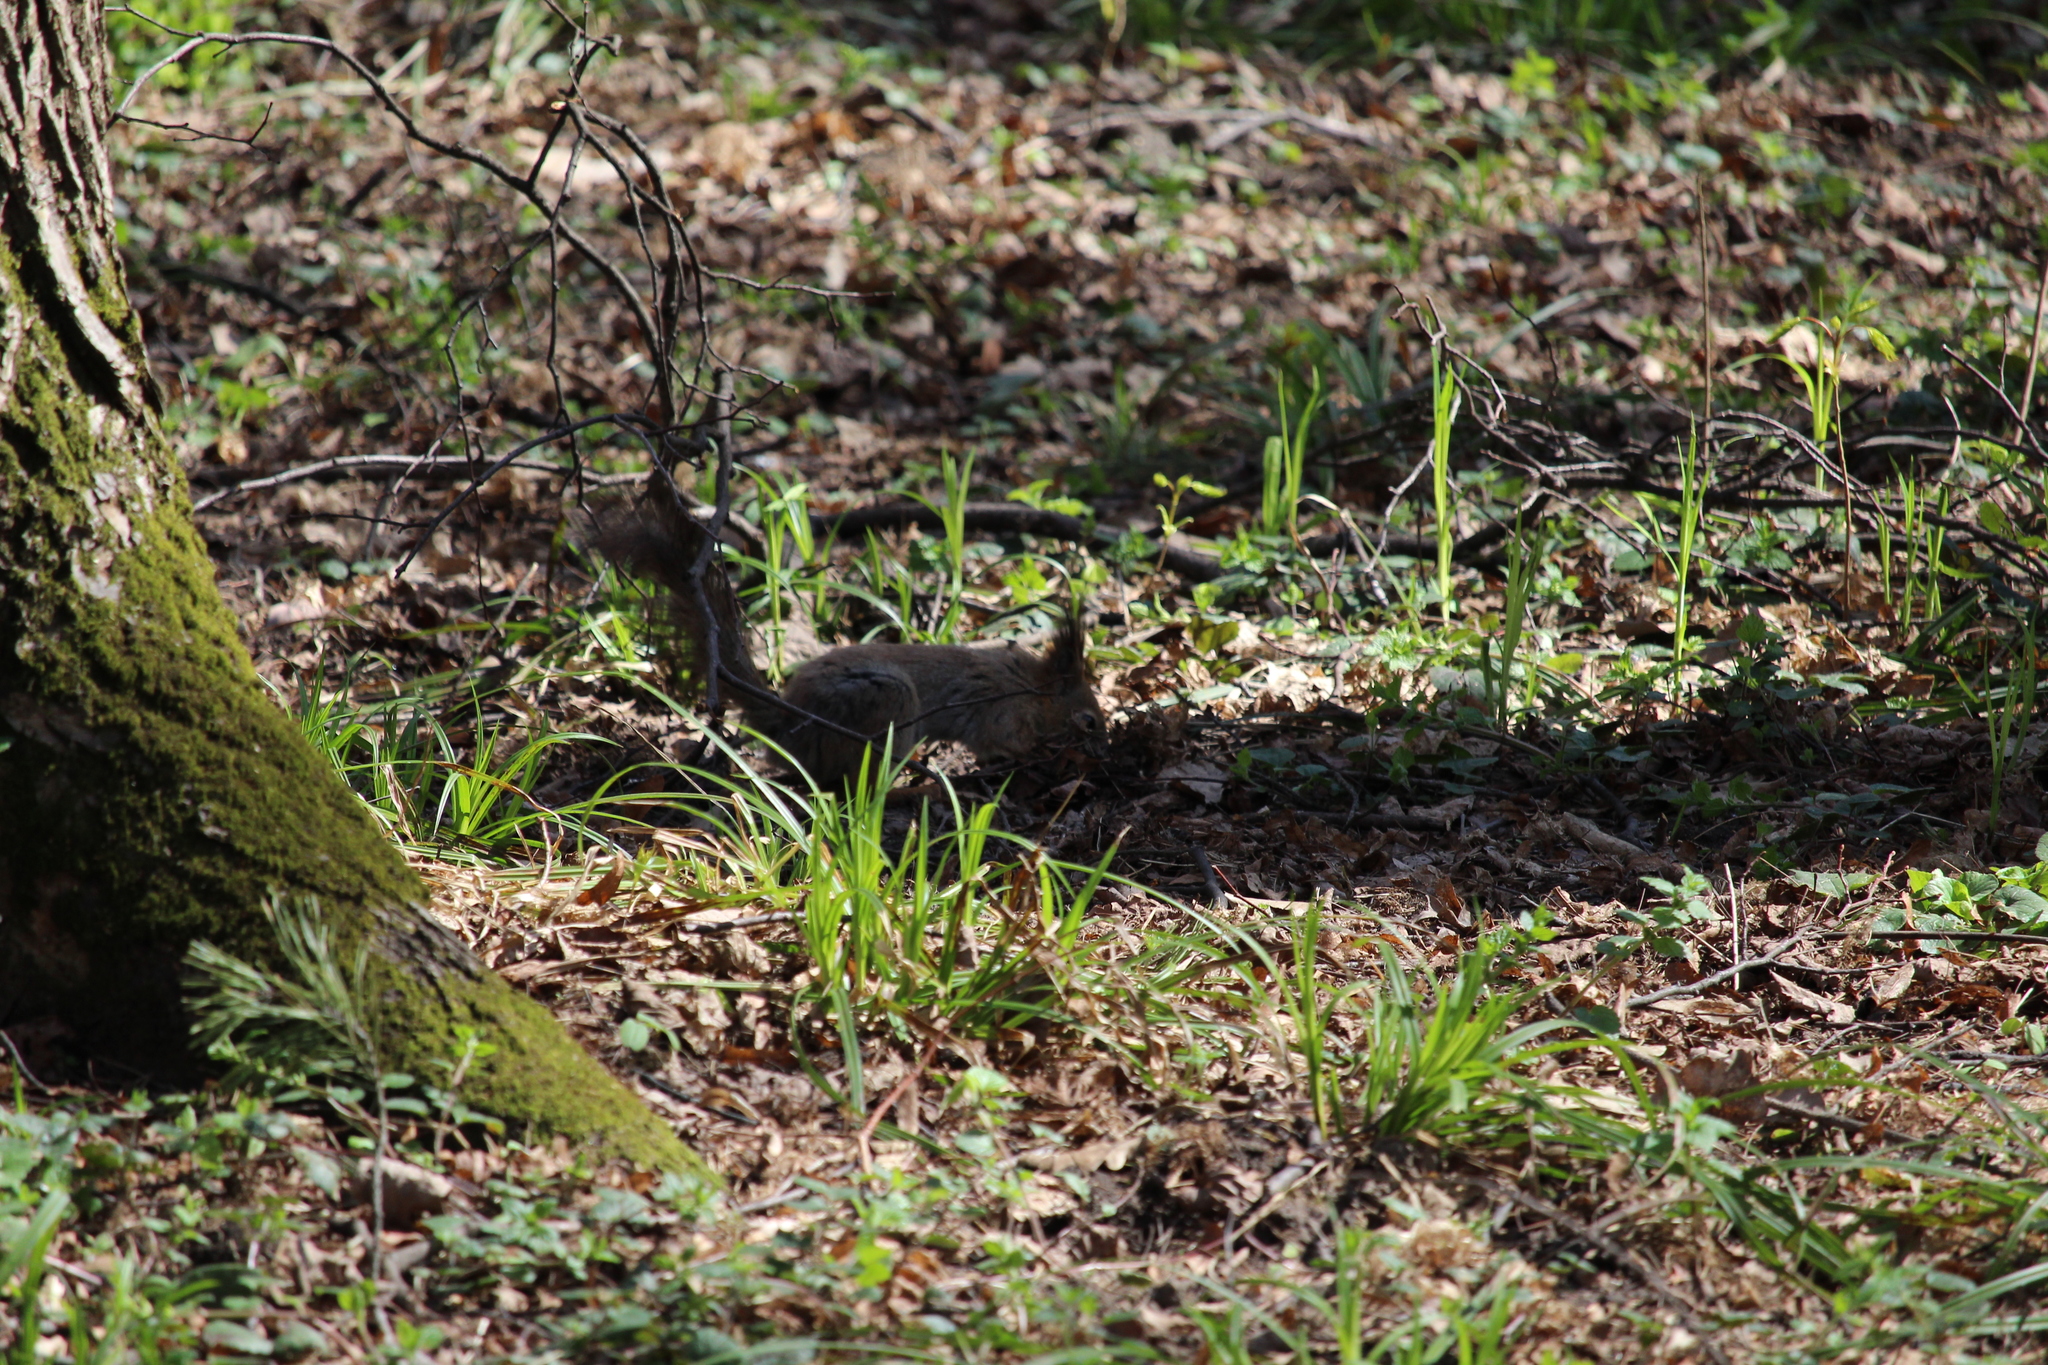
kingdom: Animalia
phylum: Chordata
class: Mammalia
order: Rodentia
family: Sciuridae
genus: Sciurus
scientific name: Sciurus vulgaris
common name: Eurasian red squirrel
